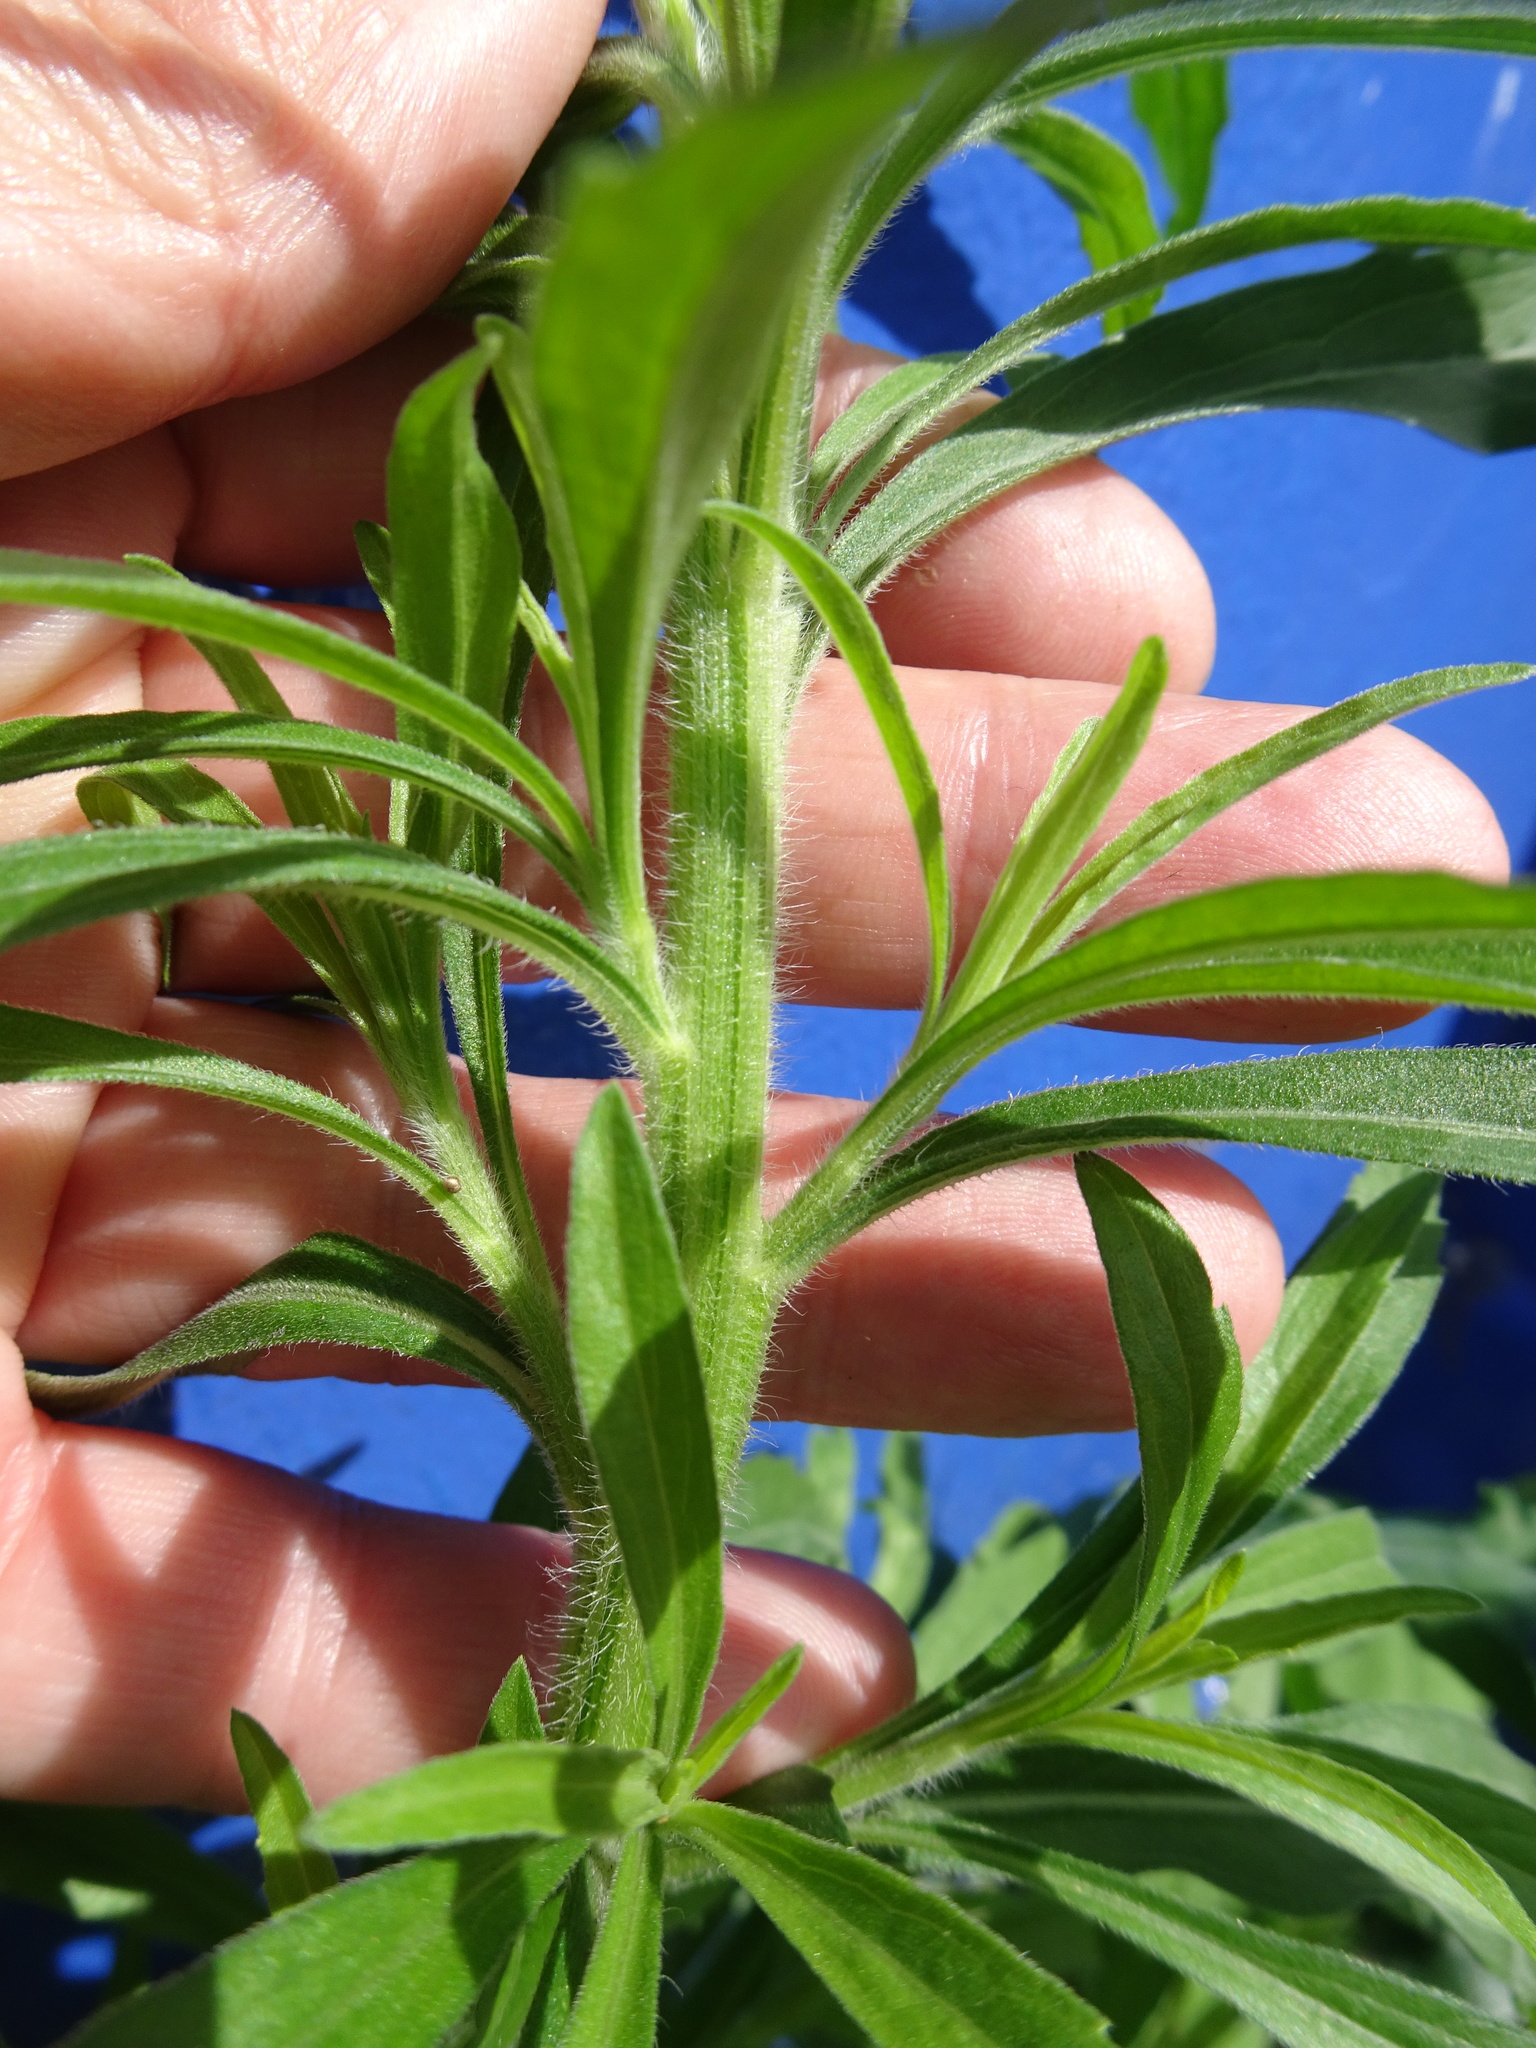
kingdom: Plantae
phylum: Tracheophyta
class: Magnoliopsida
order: Asterales
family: Asteraceae
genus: Erigeron
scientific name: Erigeron sumatrensis
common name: Daisy
